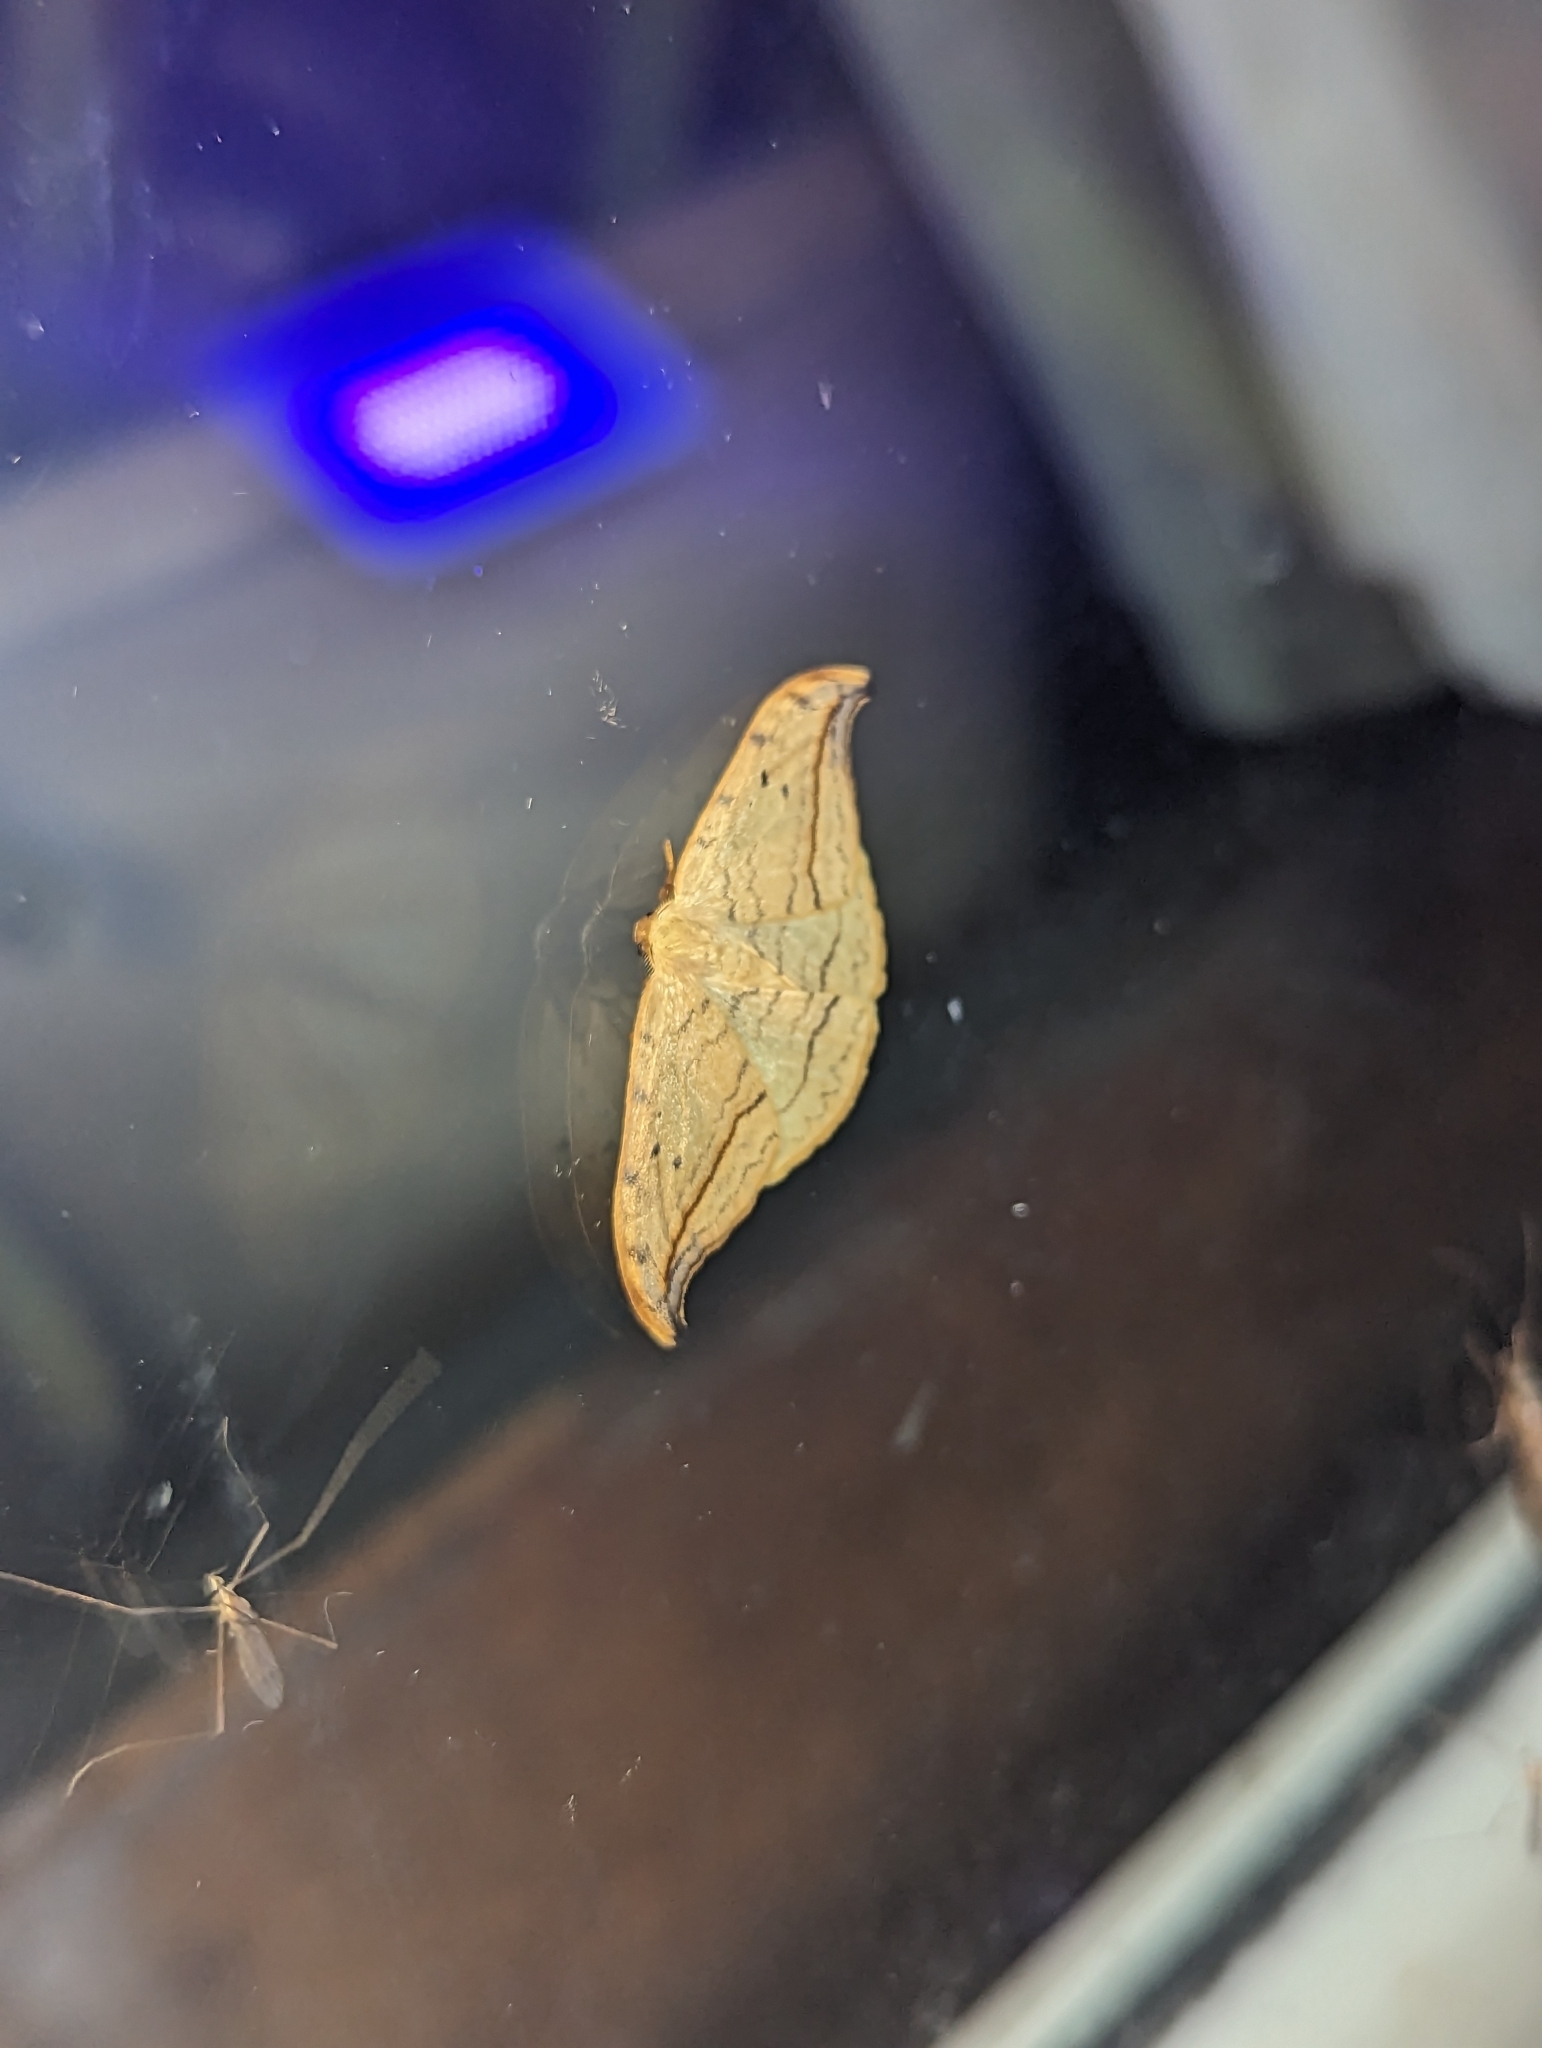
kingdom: Animalia
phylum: Arthropoda
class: Insecta
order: Lepidoptera
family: Drepanidae
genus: Drepana
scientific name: Drepana arcuata
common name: Arched hooktip moth
